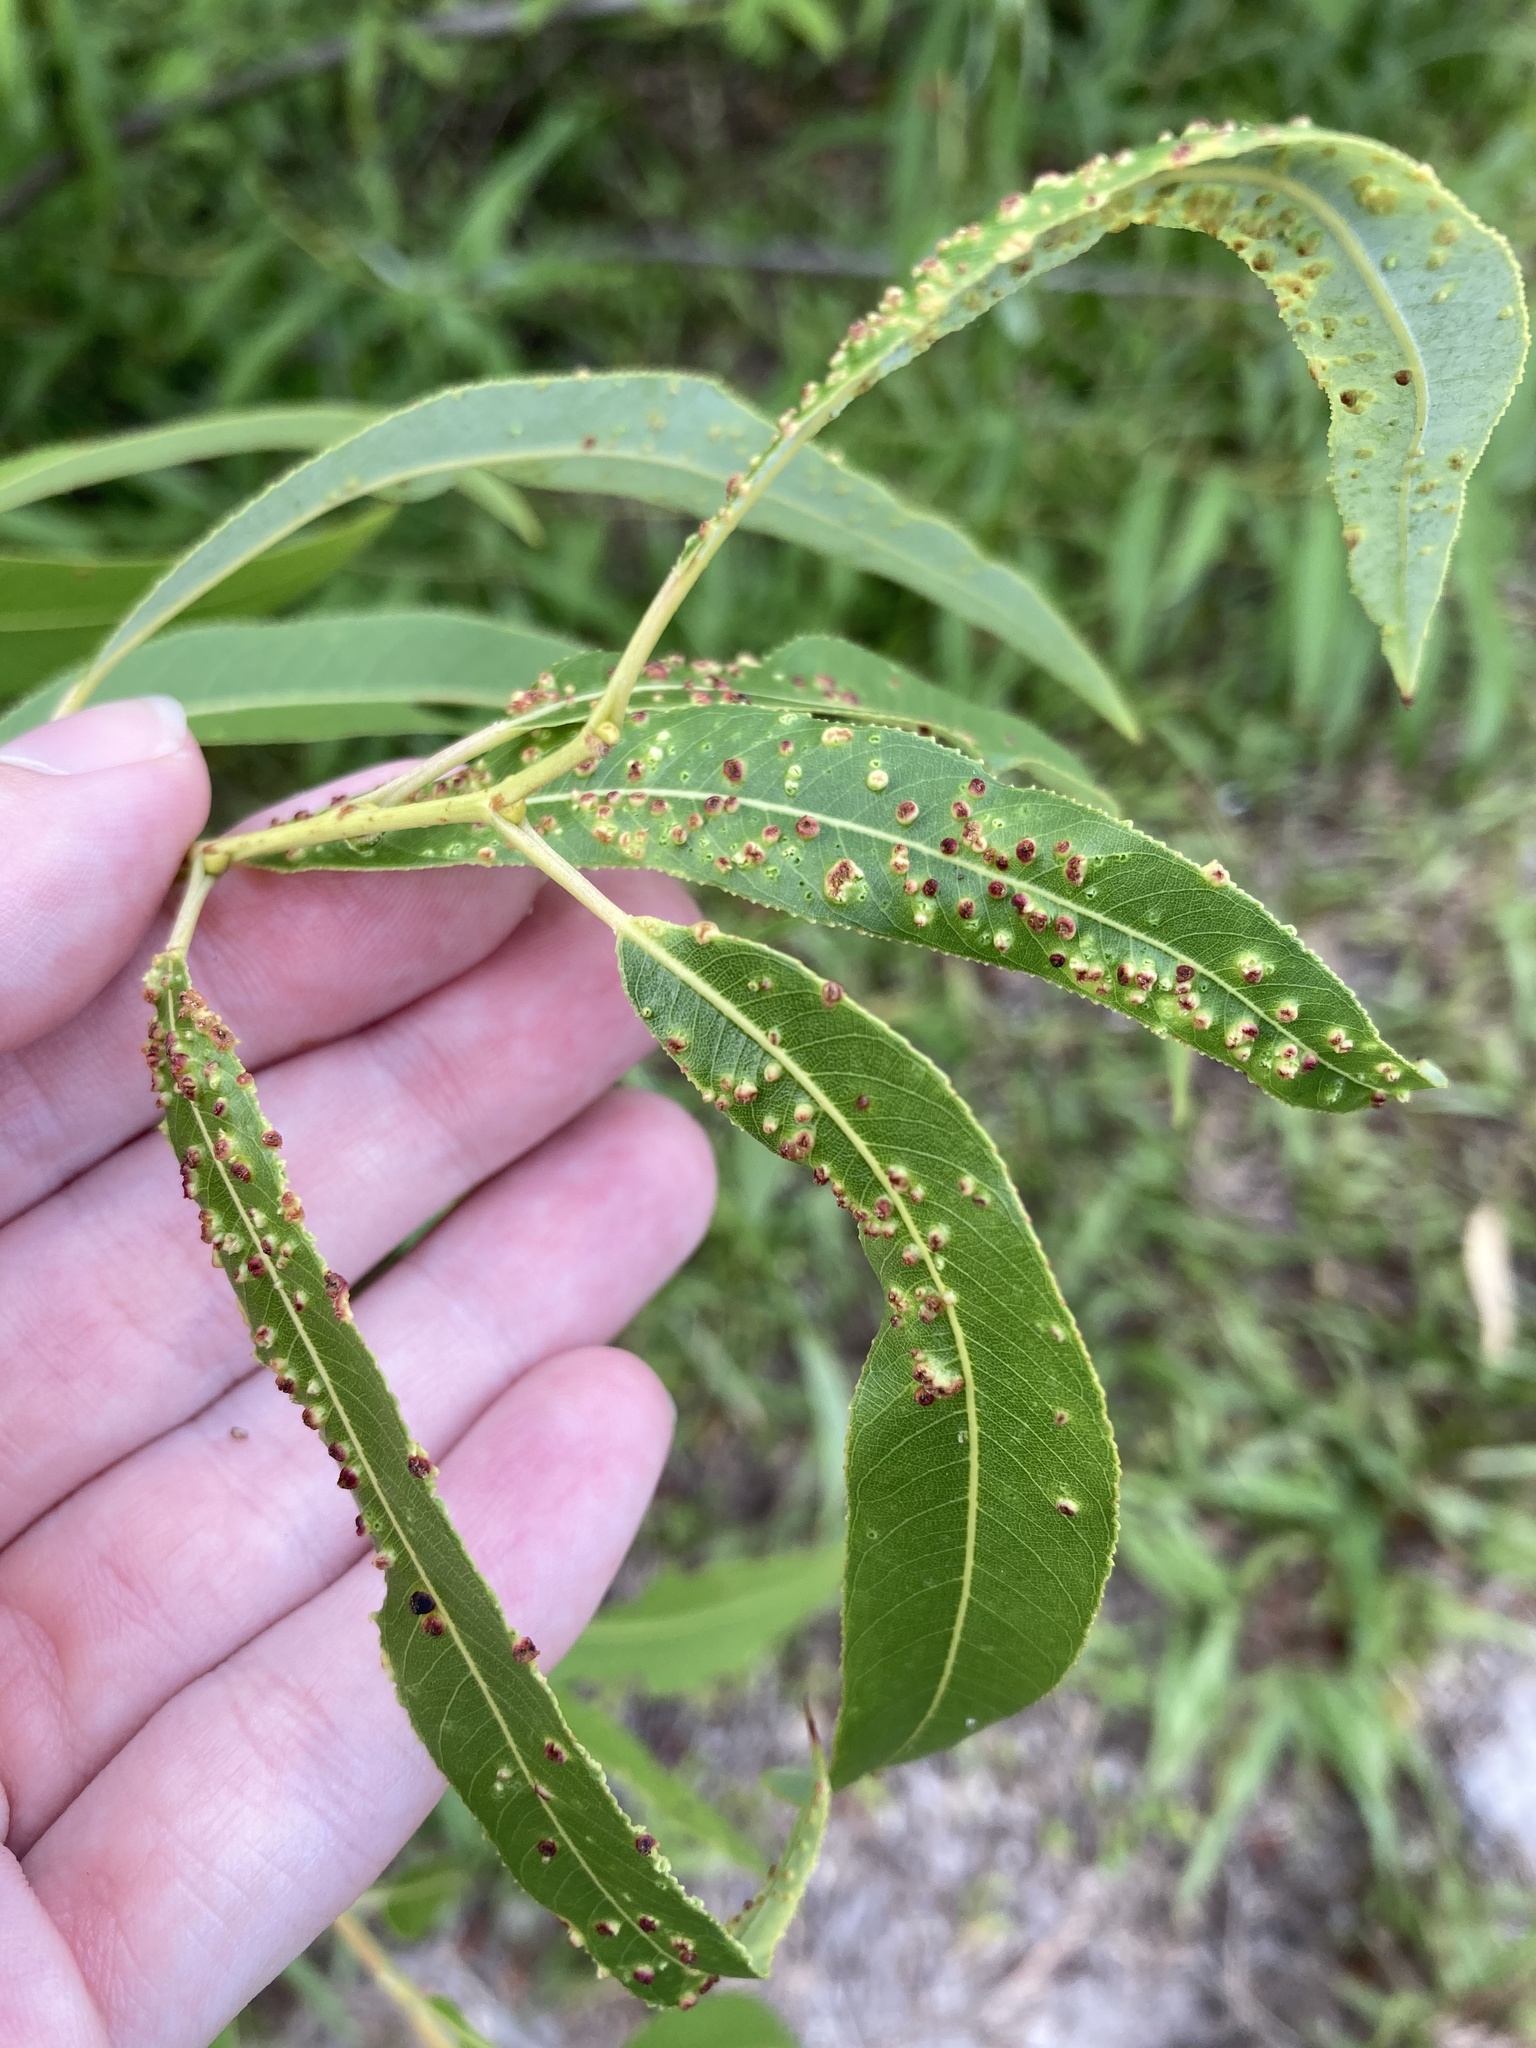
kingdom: Plantae
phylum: Tracheophyta
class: Magnoliopsida
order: Malpighiales
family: Salicaceae
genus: Salix
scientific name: Salix caroliniana
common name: Carolina willow
